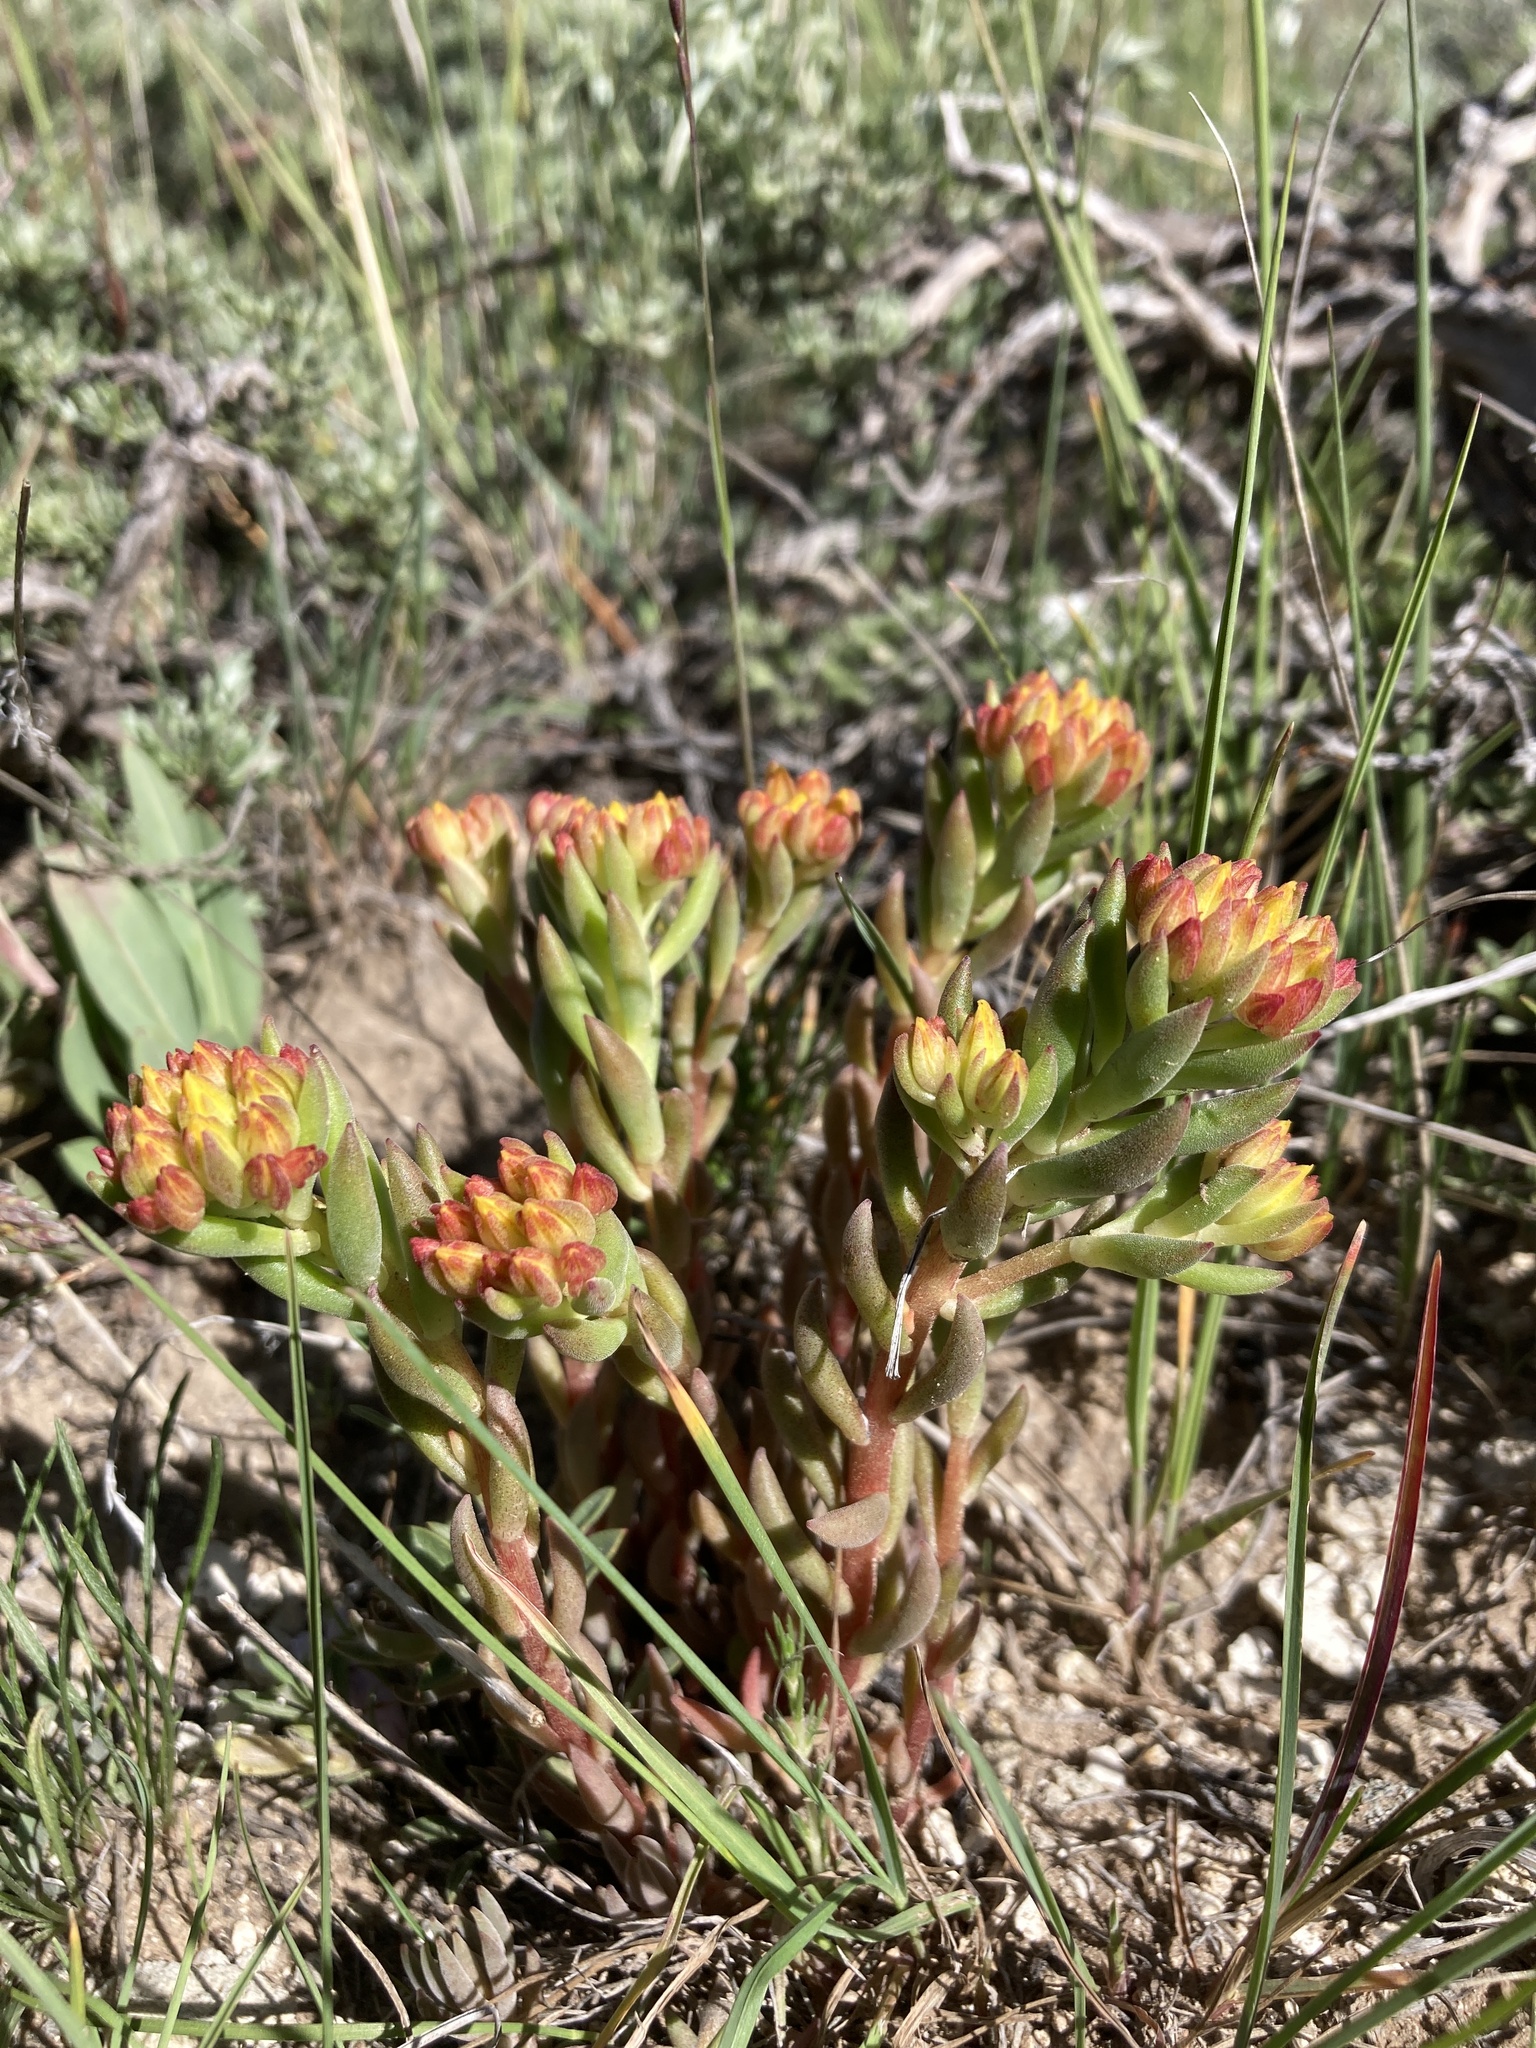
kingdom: Plantae
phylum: Tracheophyta
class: Magnoliopsida
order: Saxifragales
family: Crassulaceae
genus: Sedum
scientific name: Sedum lanceolatum
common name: Common stonecrop
